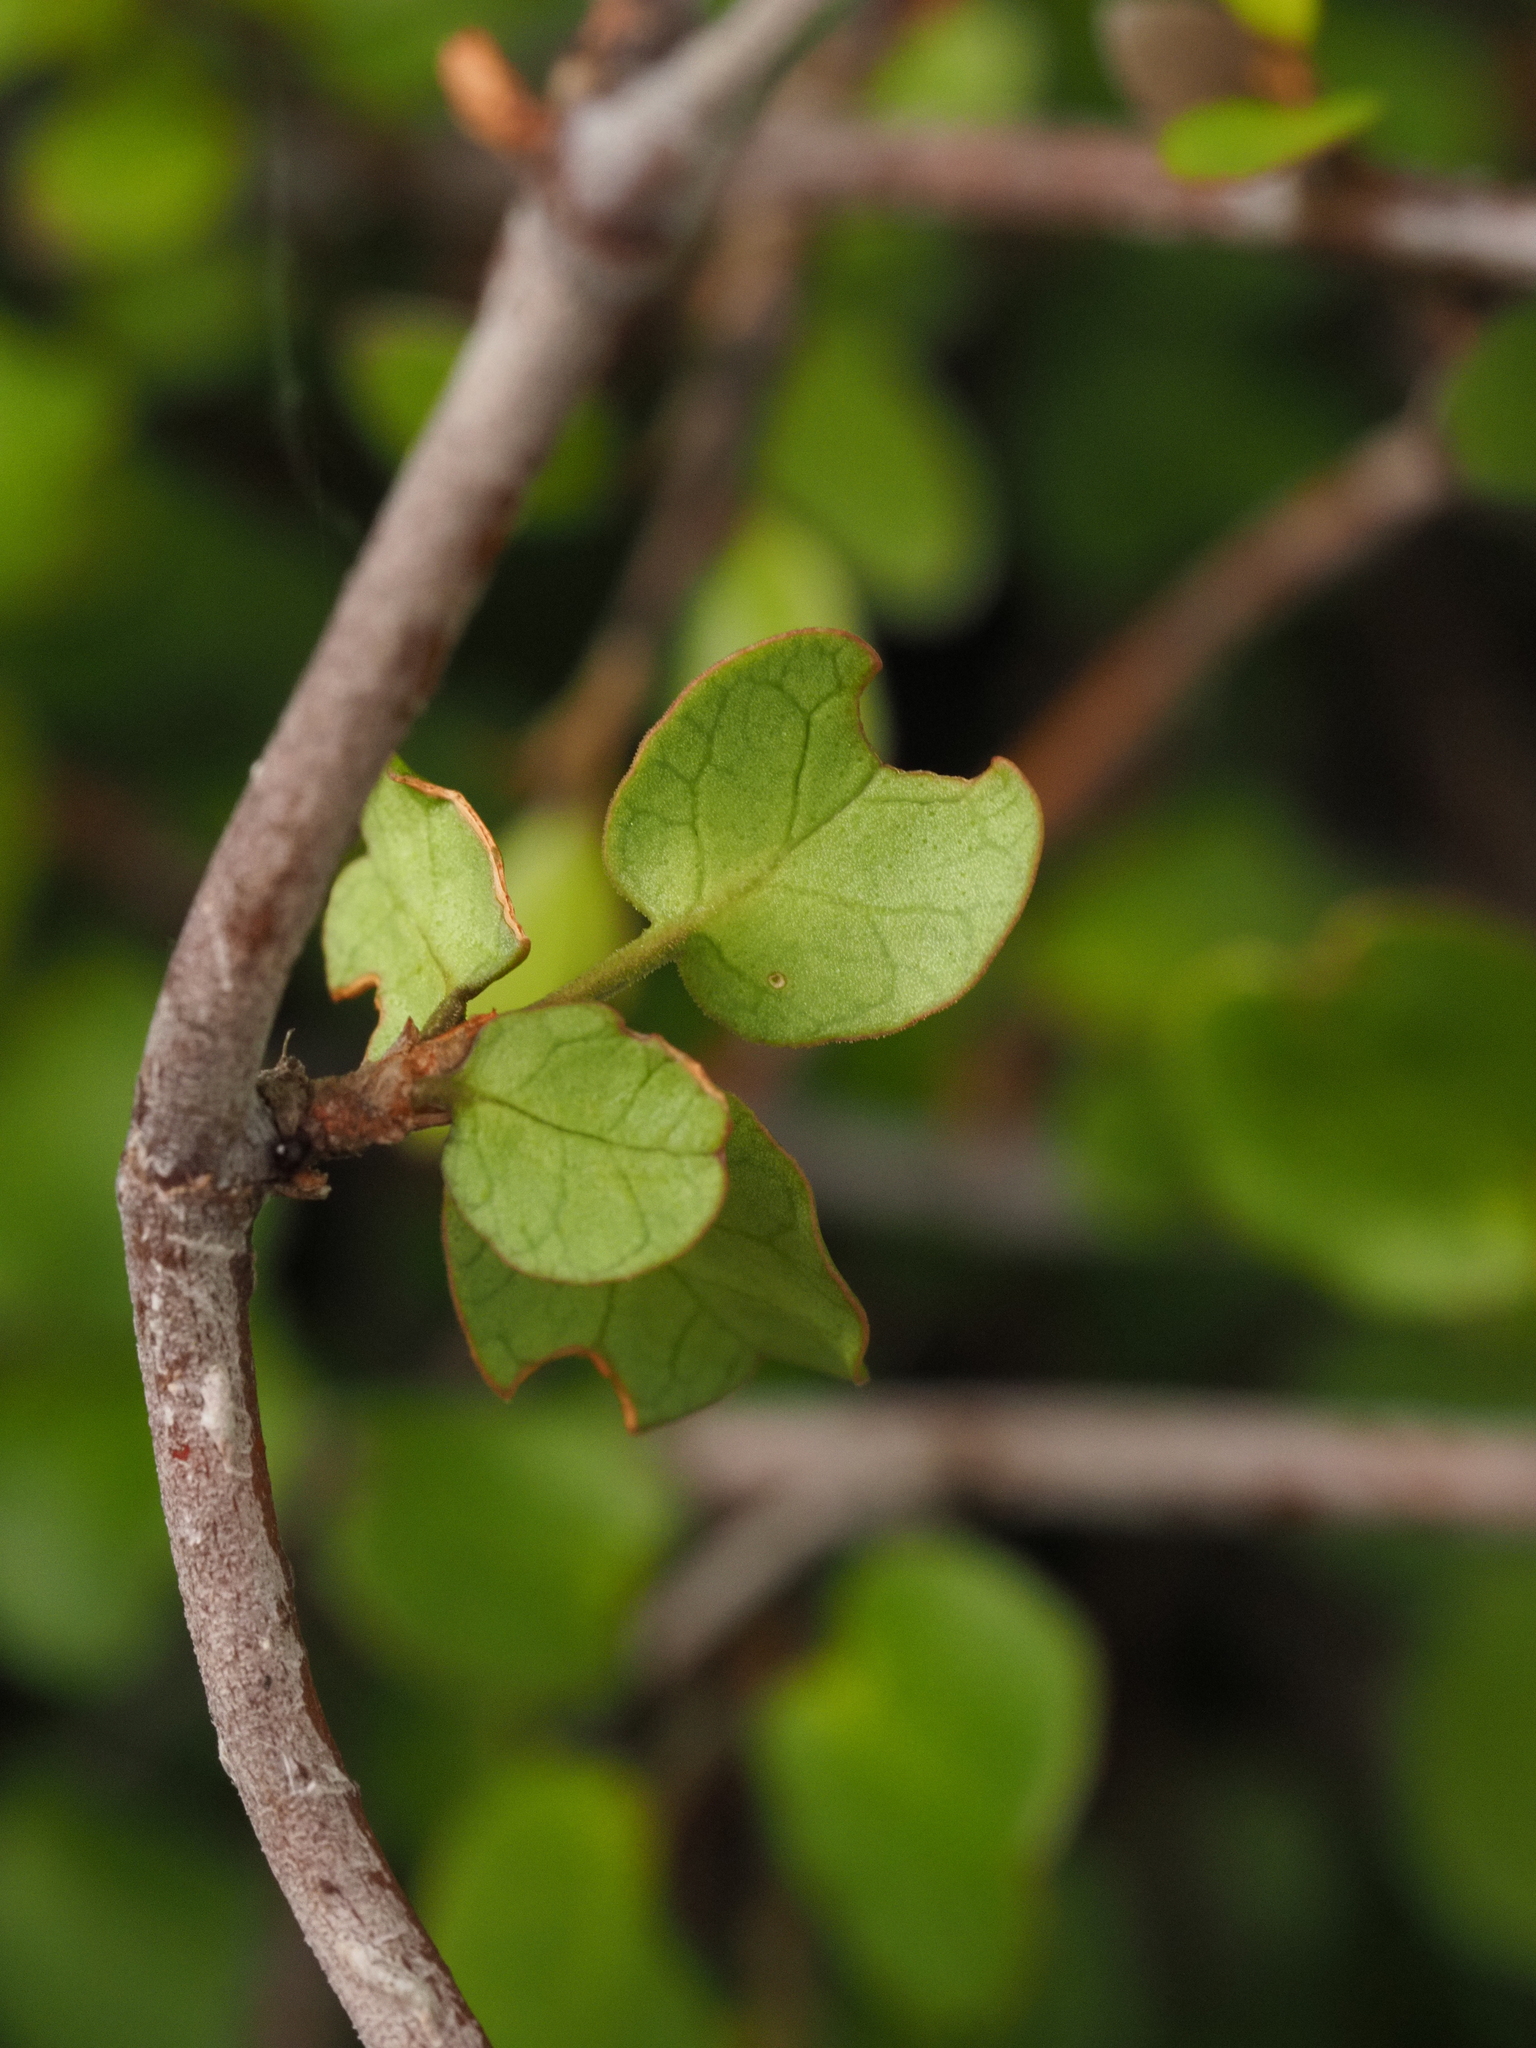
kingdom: Plantae
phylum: Tracheophyta
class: Magnoliopsida
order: Caryophyllales
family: Polygonaceae
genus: Muehlenbeckia
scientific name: Muehlenbeckia complexa
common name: Wireplant
